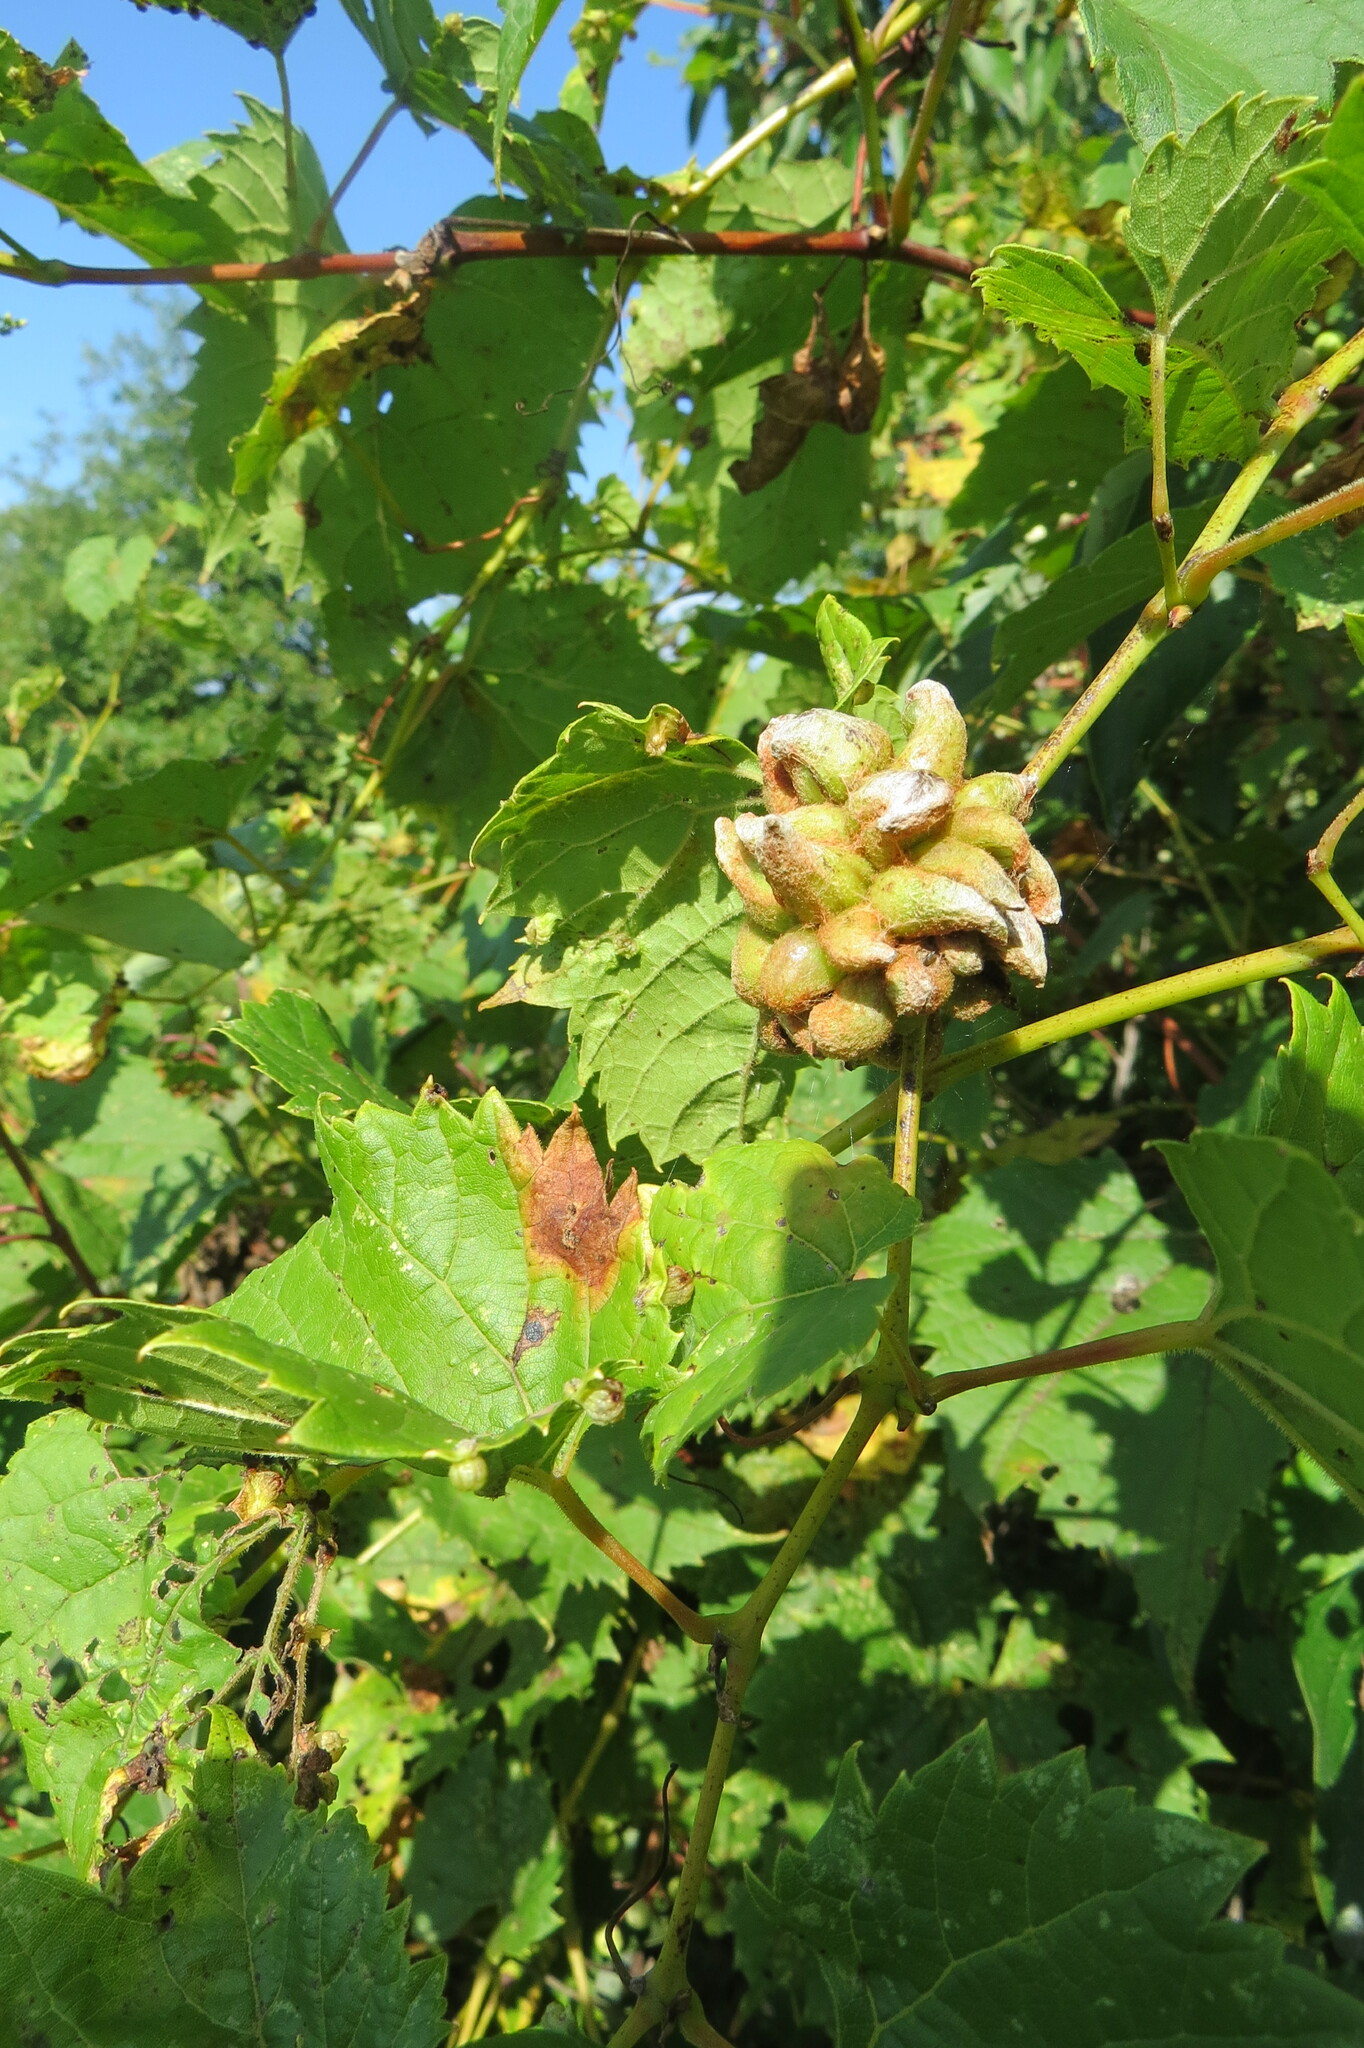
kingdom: Animalia
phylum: Arthropoda
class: Insecta
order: Diptera
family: Cecidomyiidae
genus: Ampelomyia
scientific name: Ampelomyia vitiscoryloides
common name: Grape filbert gall
